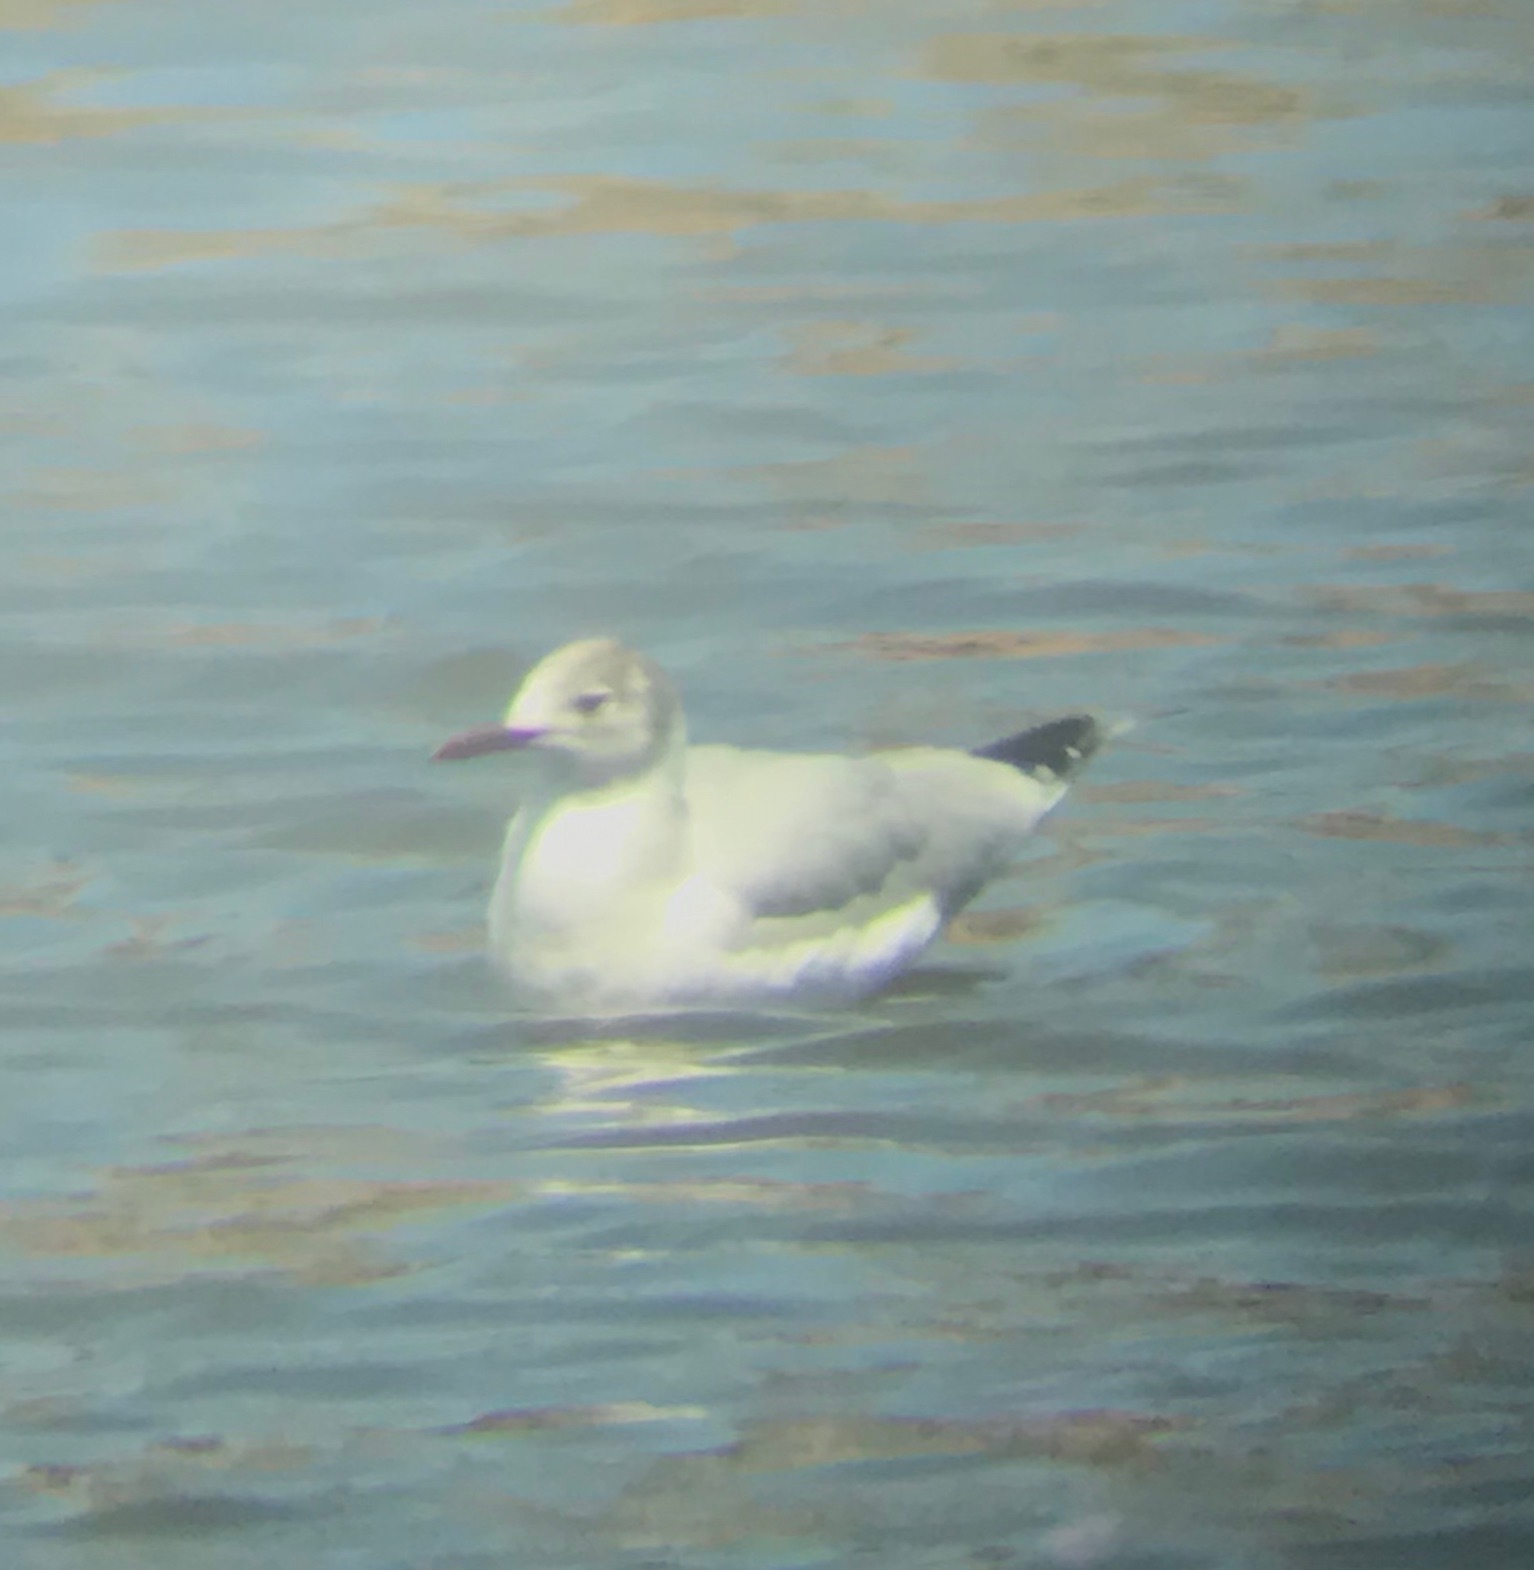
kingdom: Animalia
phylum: Chordata
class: Aves
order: Charadriiformes
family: Laridae
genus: Chroicocephalus
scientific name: Chroicocephalus ridibundus
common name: Black-headed gull
